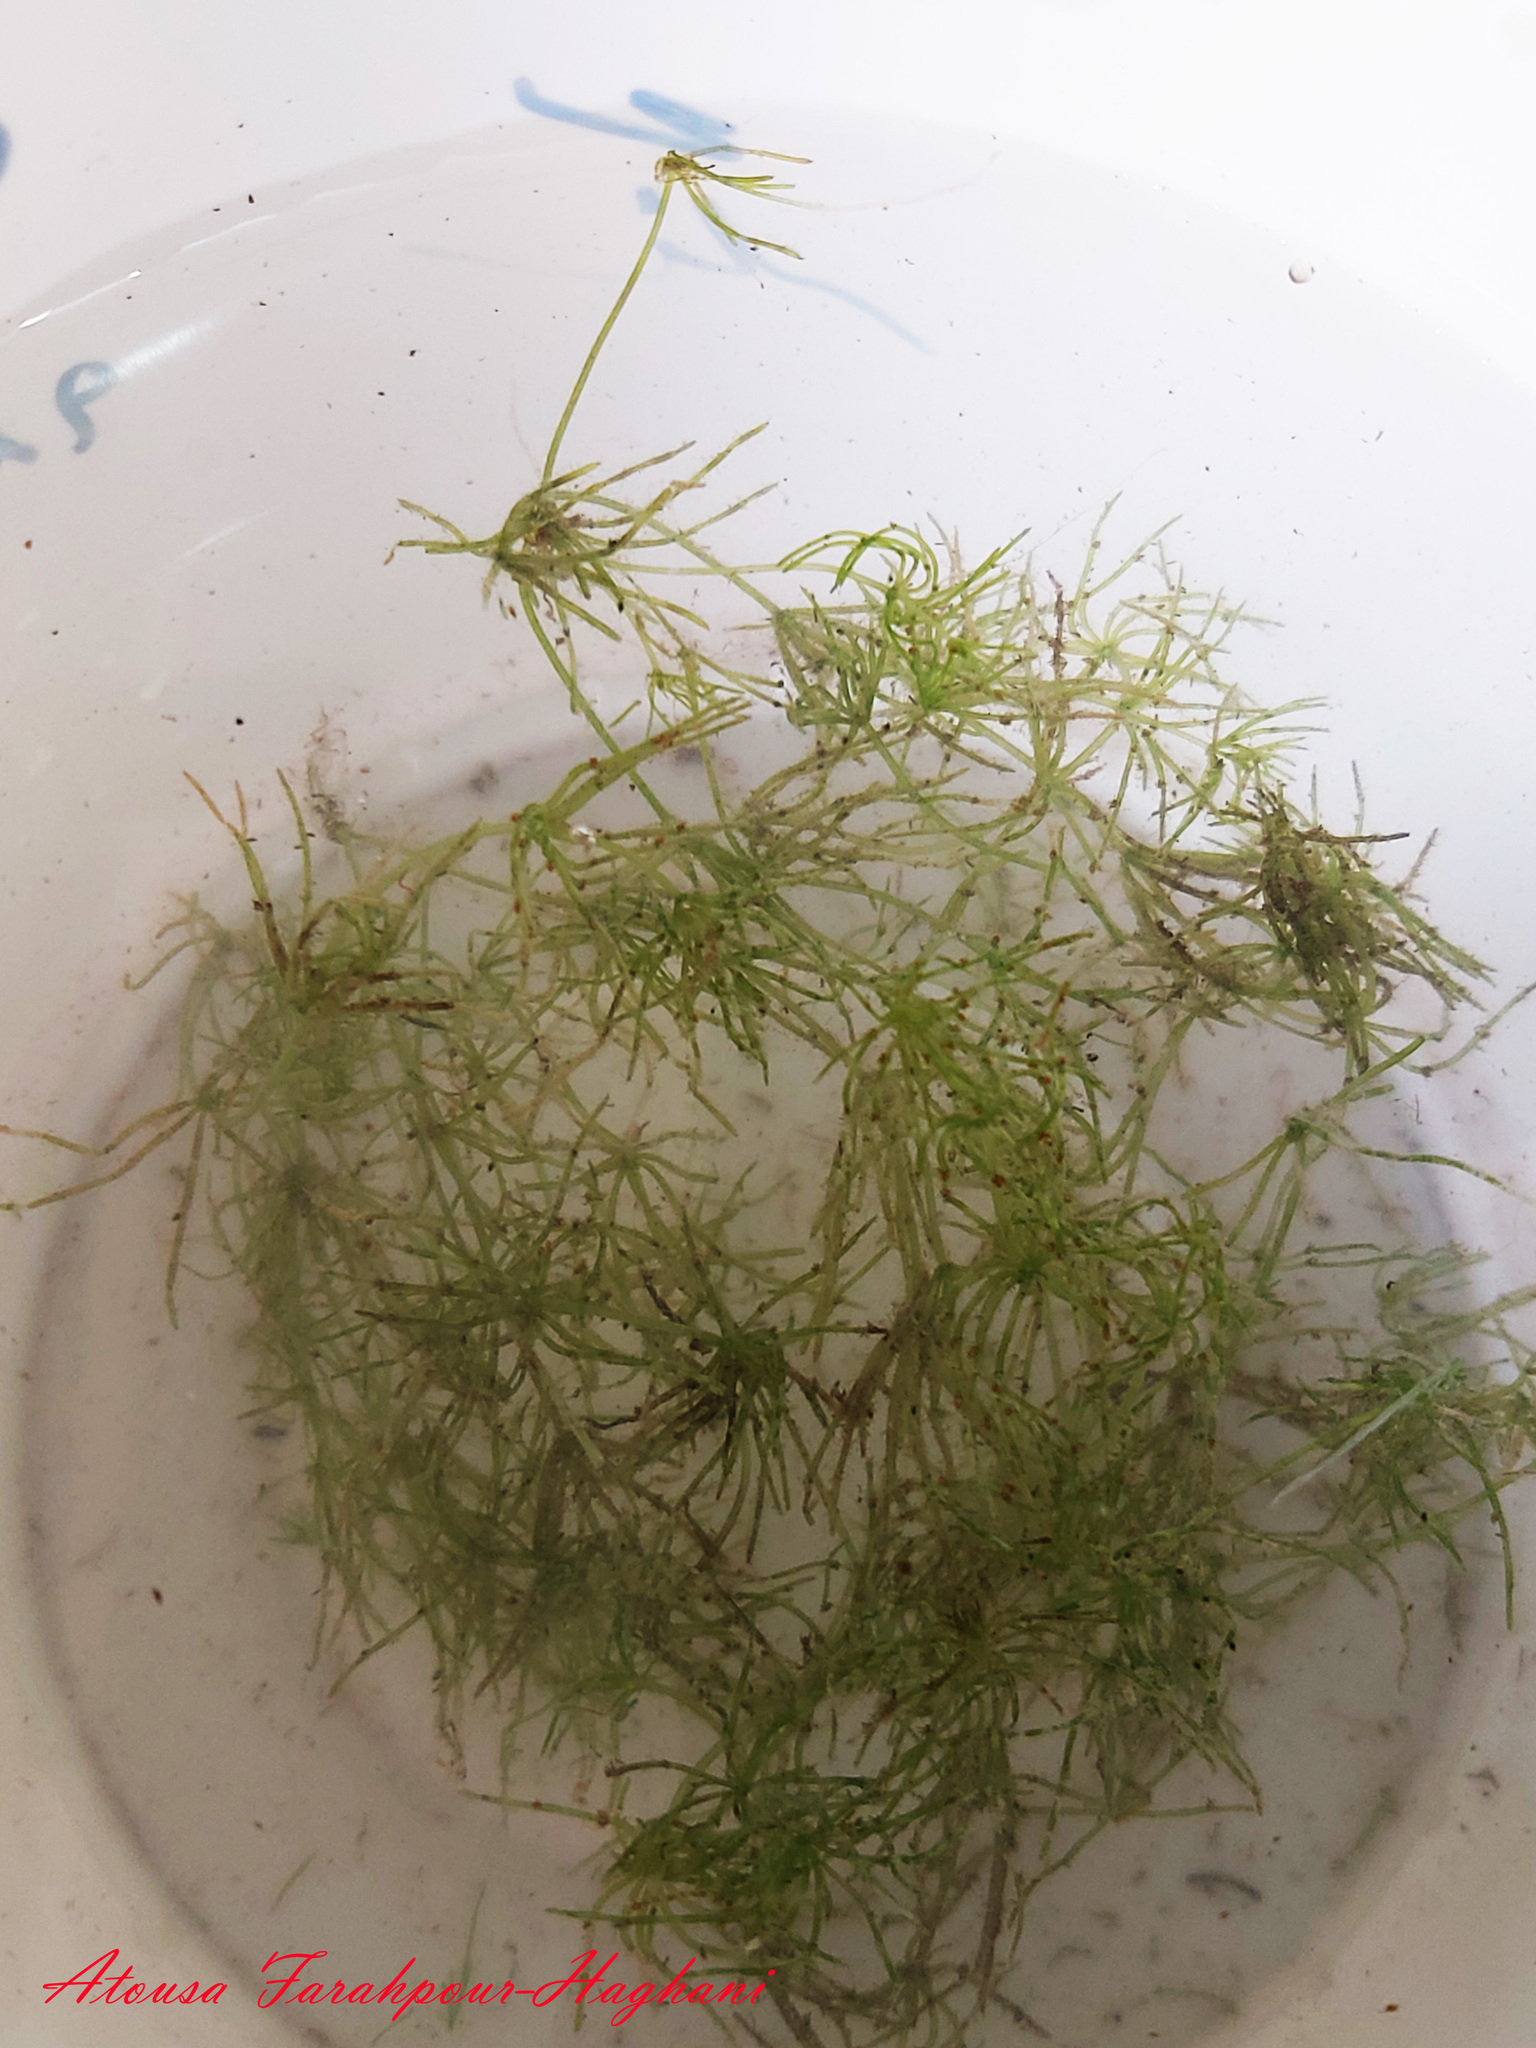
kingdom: Plantae
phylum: Charophyta
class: Charophyceae
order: Charales
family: Characeae
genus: Chara
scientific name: Chara braunii
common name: Braun's stonewort
